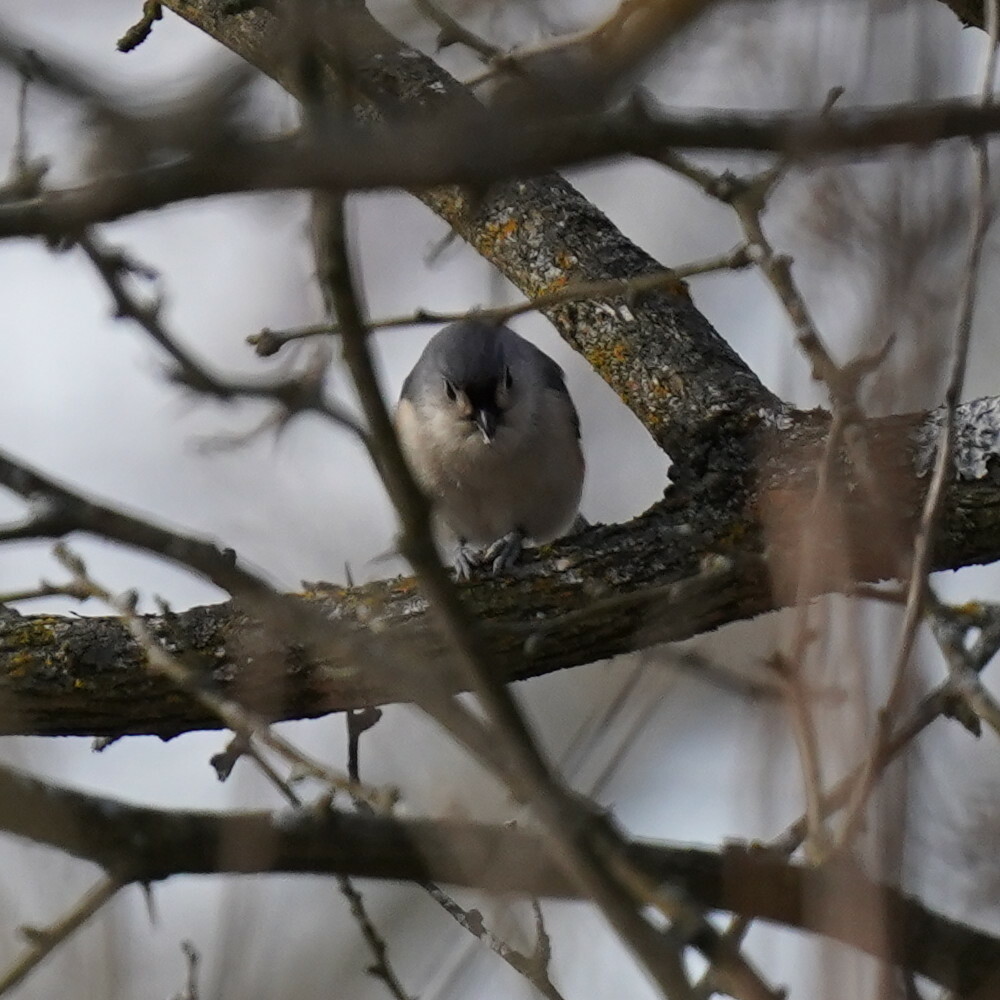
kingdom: Animalia
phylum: Chordata
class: Aves
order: Passeriformes
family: Paridae
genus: Baeolophus
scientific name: Baeolophus bicolor
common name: Tufted titmouse
